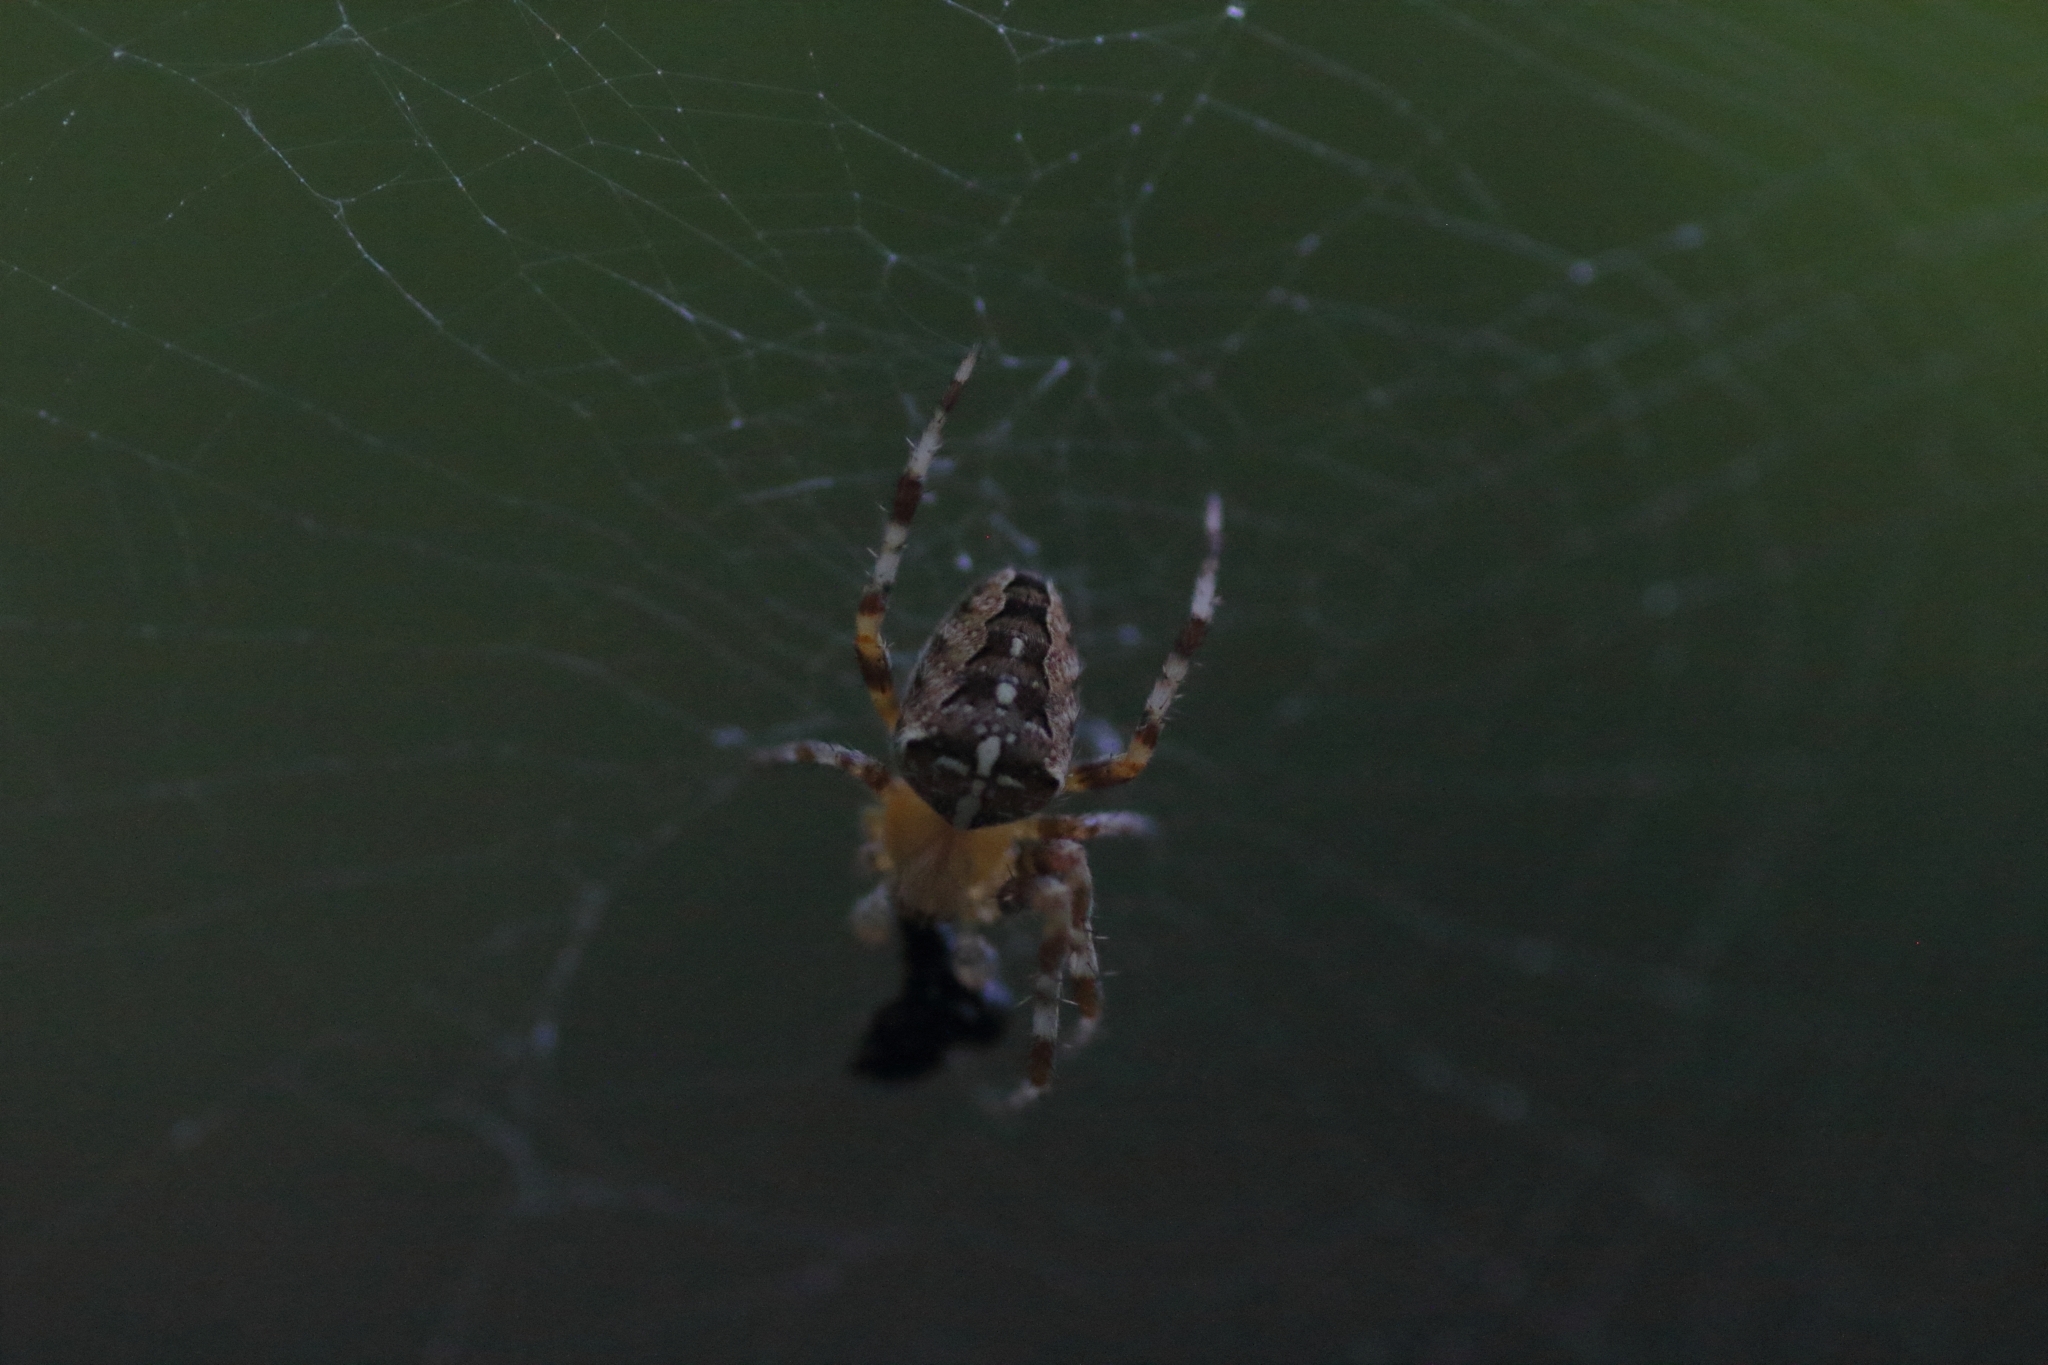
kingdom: Animalia
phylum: Arthropoda
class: Arachnida
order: Araneae
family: Araneidae
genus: Araneus
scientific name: Araneus diadematus
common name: Cross orbweaver
